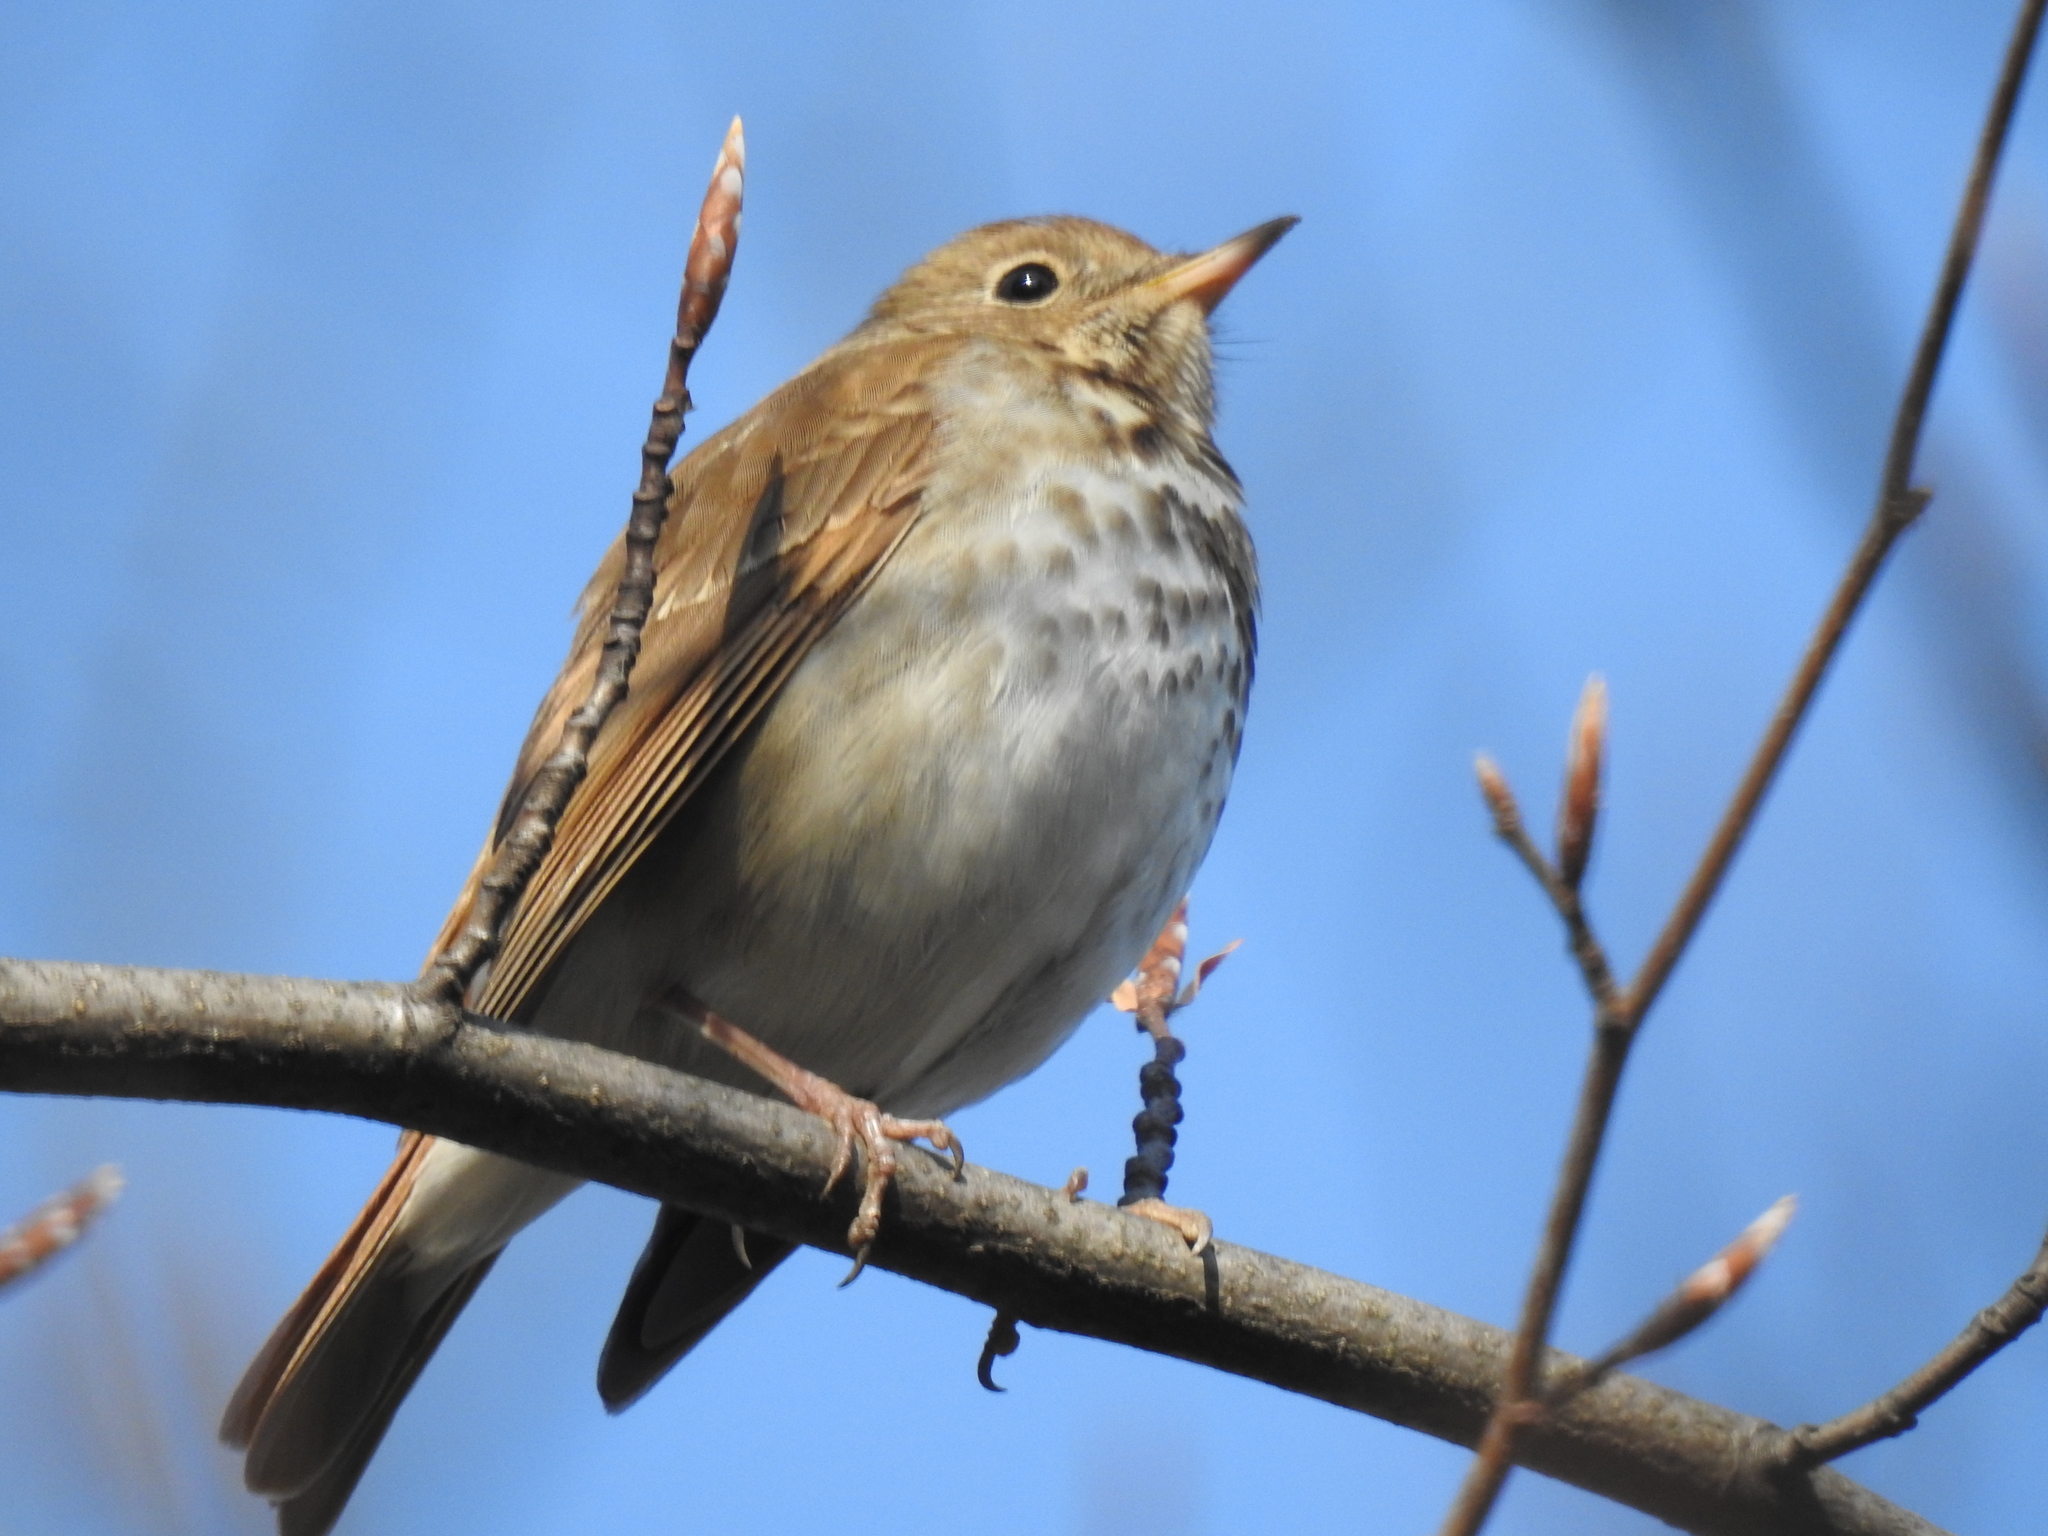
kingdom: Animalia
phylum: Chordata
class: Aves
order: Passeriformes
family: Turdidae
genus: Catharus
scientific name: Catharus guttatus
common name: Hermit thrush
